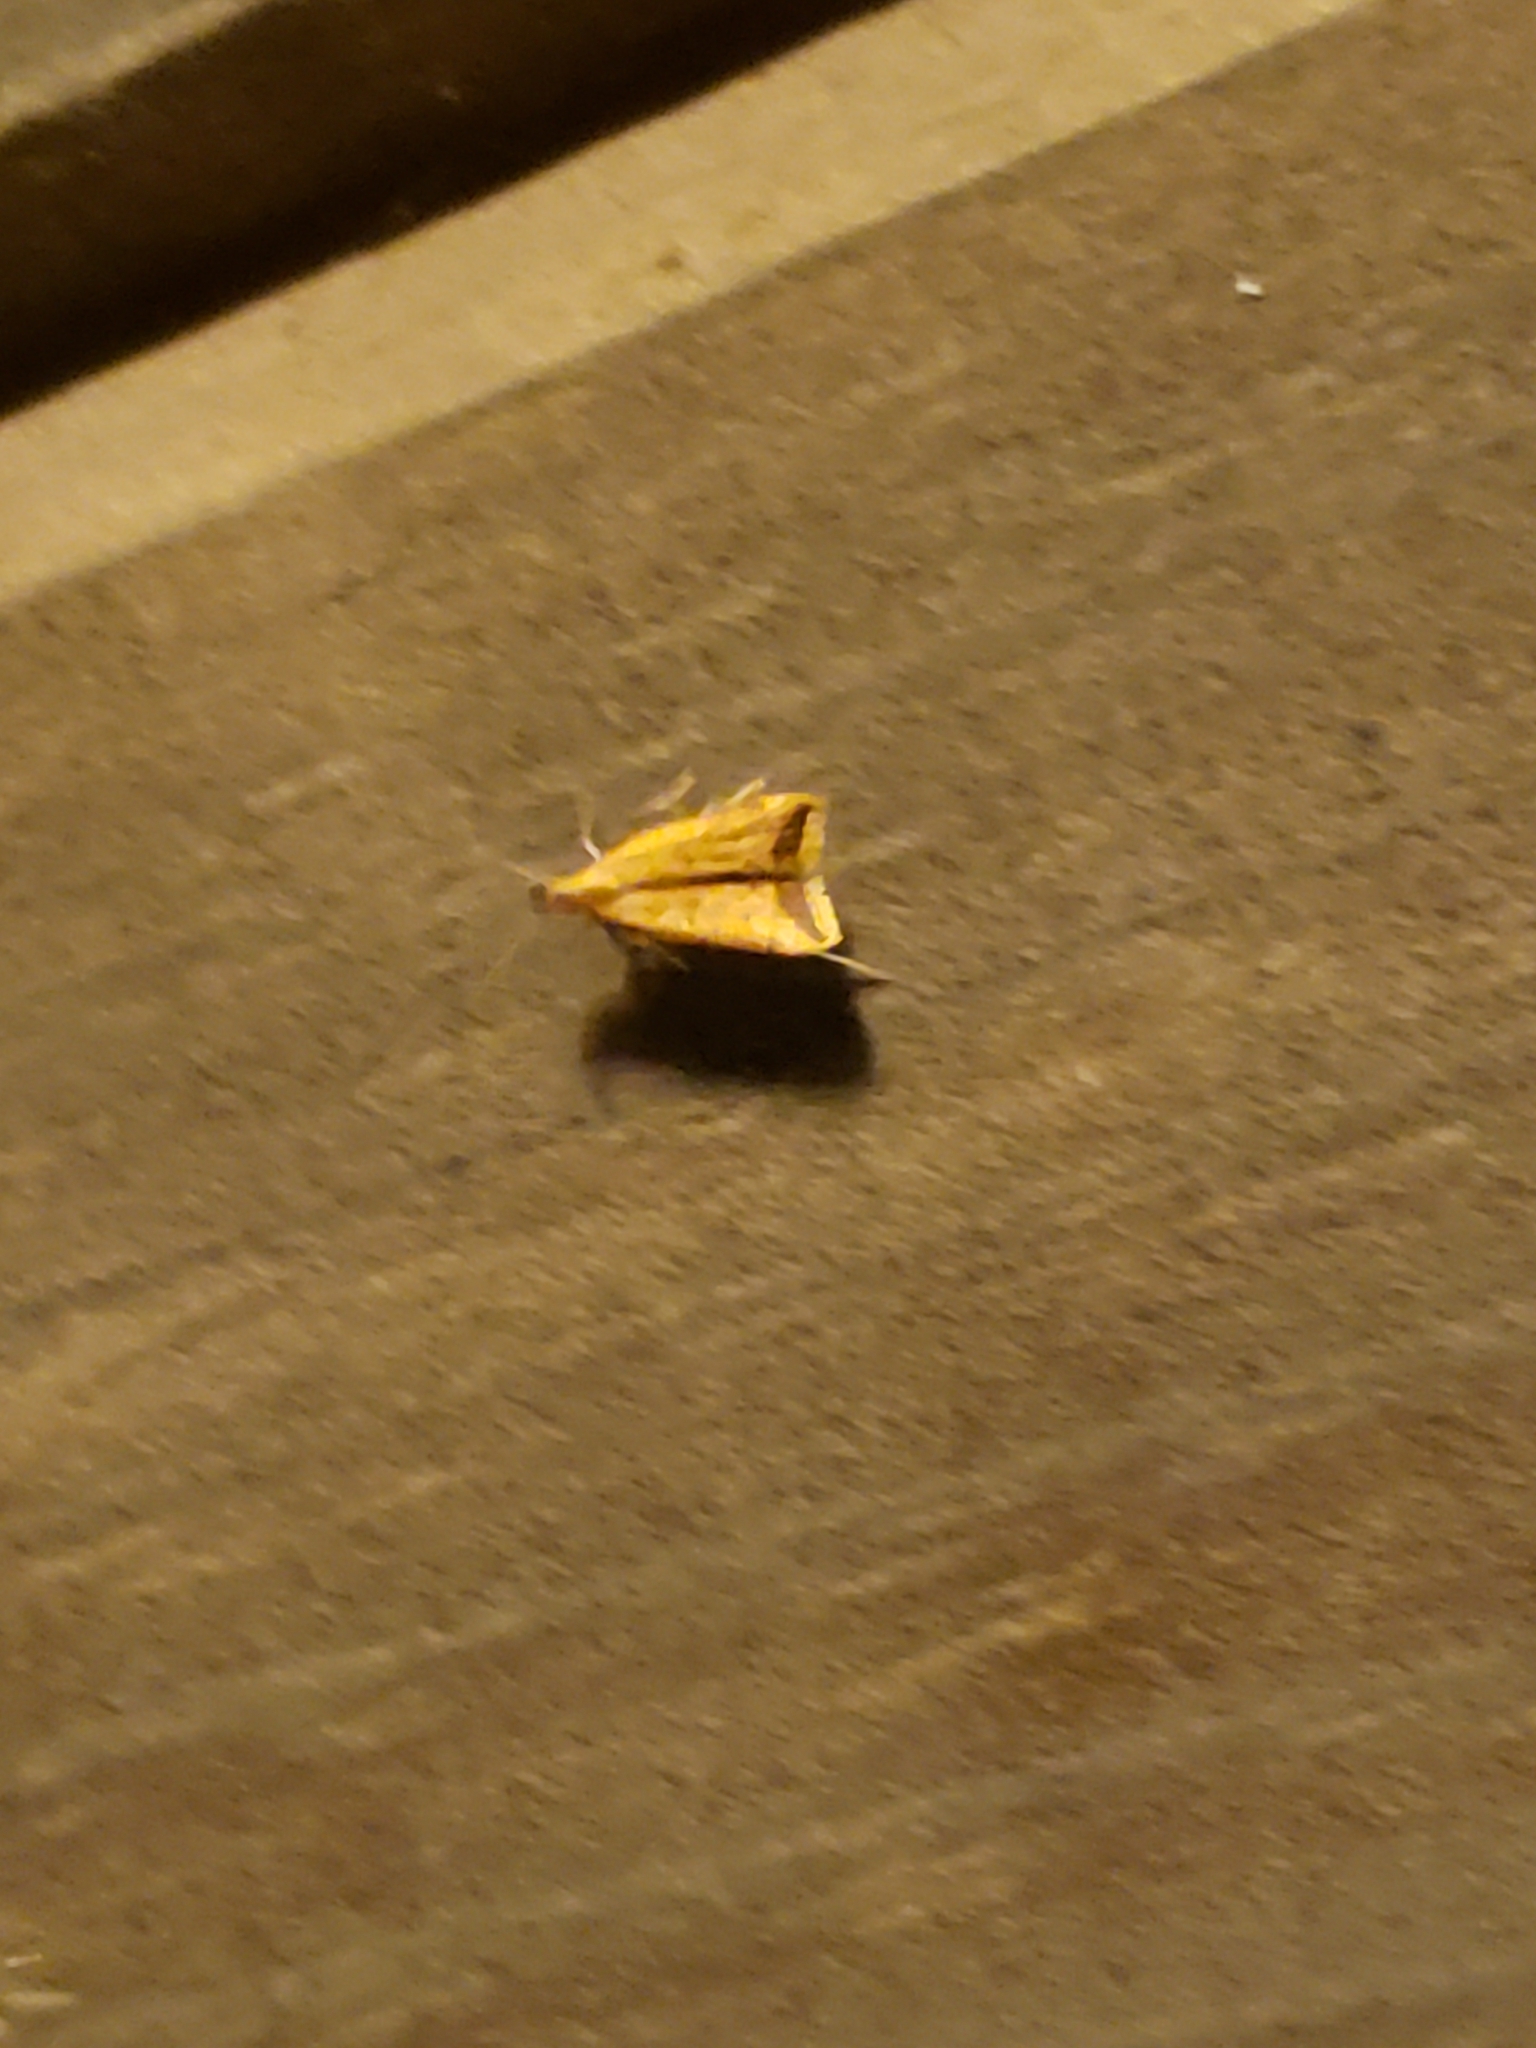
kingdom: Animalia
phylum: Arthropoda
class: Insecta
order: Lepidoptera
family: Gelechiidae
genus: Dichomeris
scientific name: Dichomeris heriguronis
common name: Black-edged dichomeris moth
